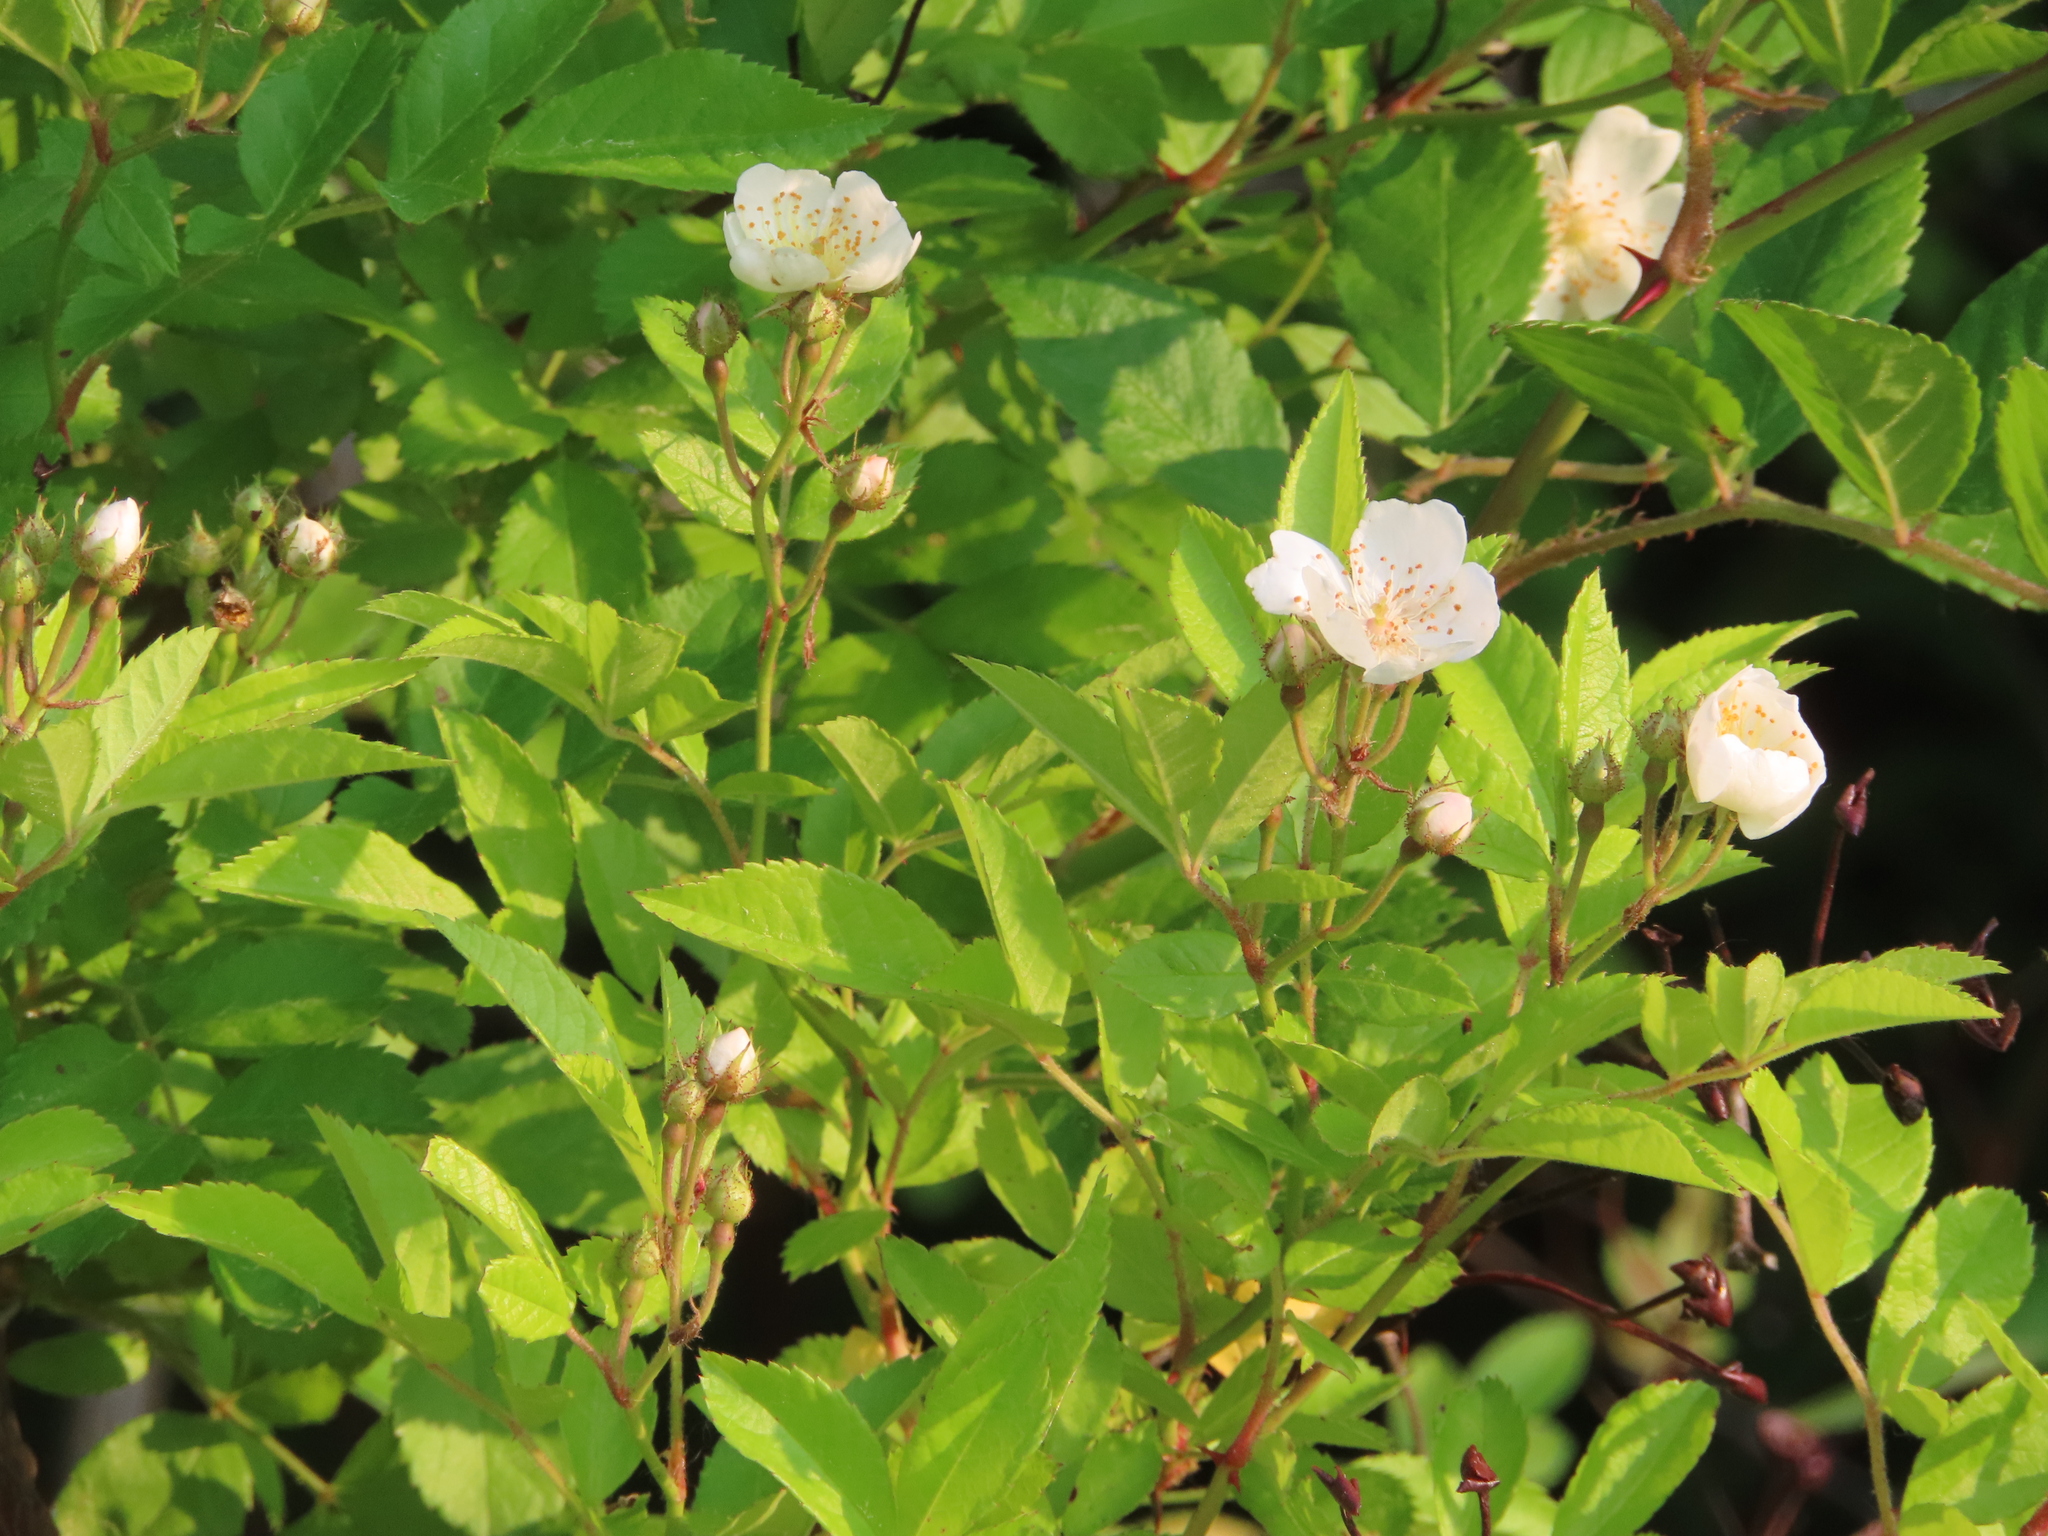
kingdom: Plantae
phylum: Tracheophyta
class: Magnoliopsida
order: Rosales
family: Rosaceae
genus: Rosa
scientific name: Rosa multiflora
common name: Multiflora rose
